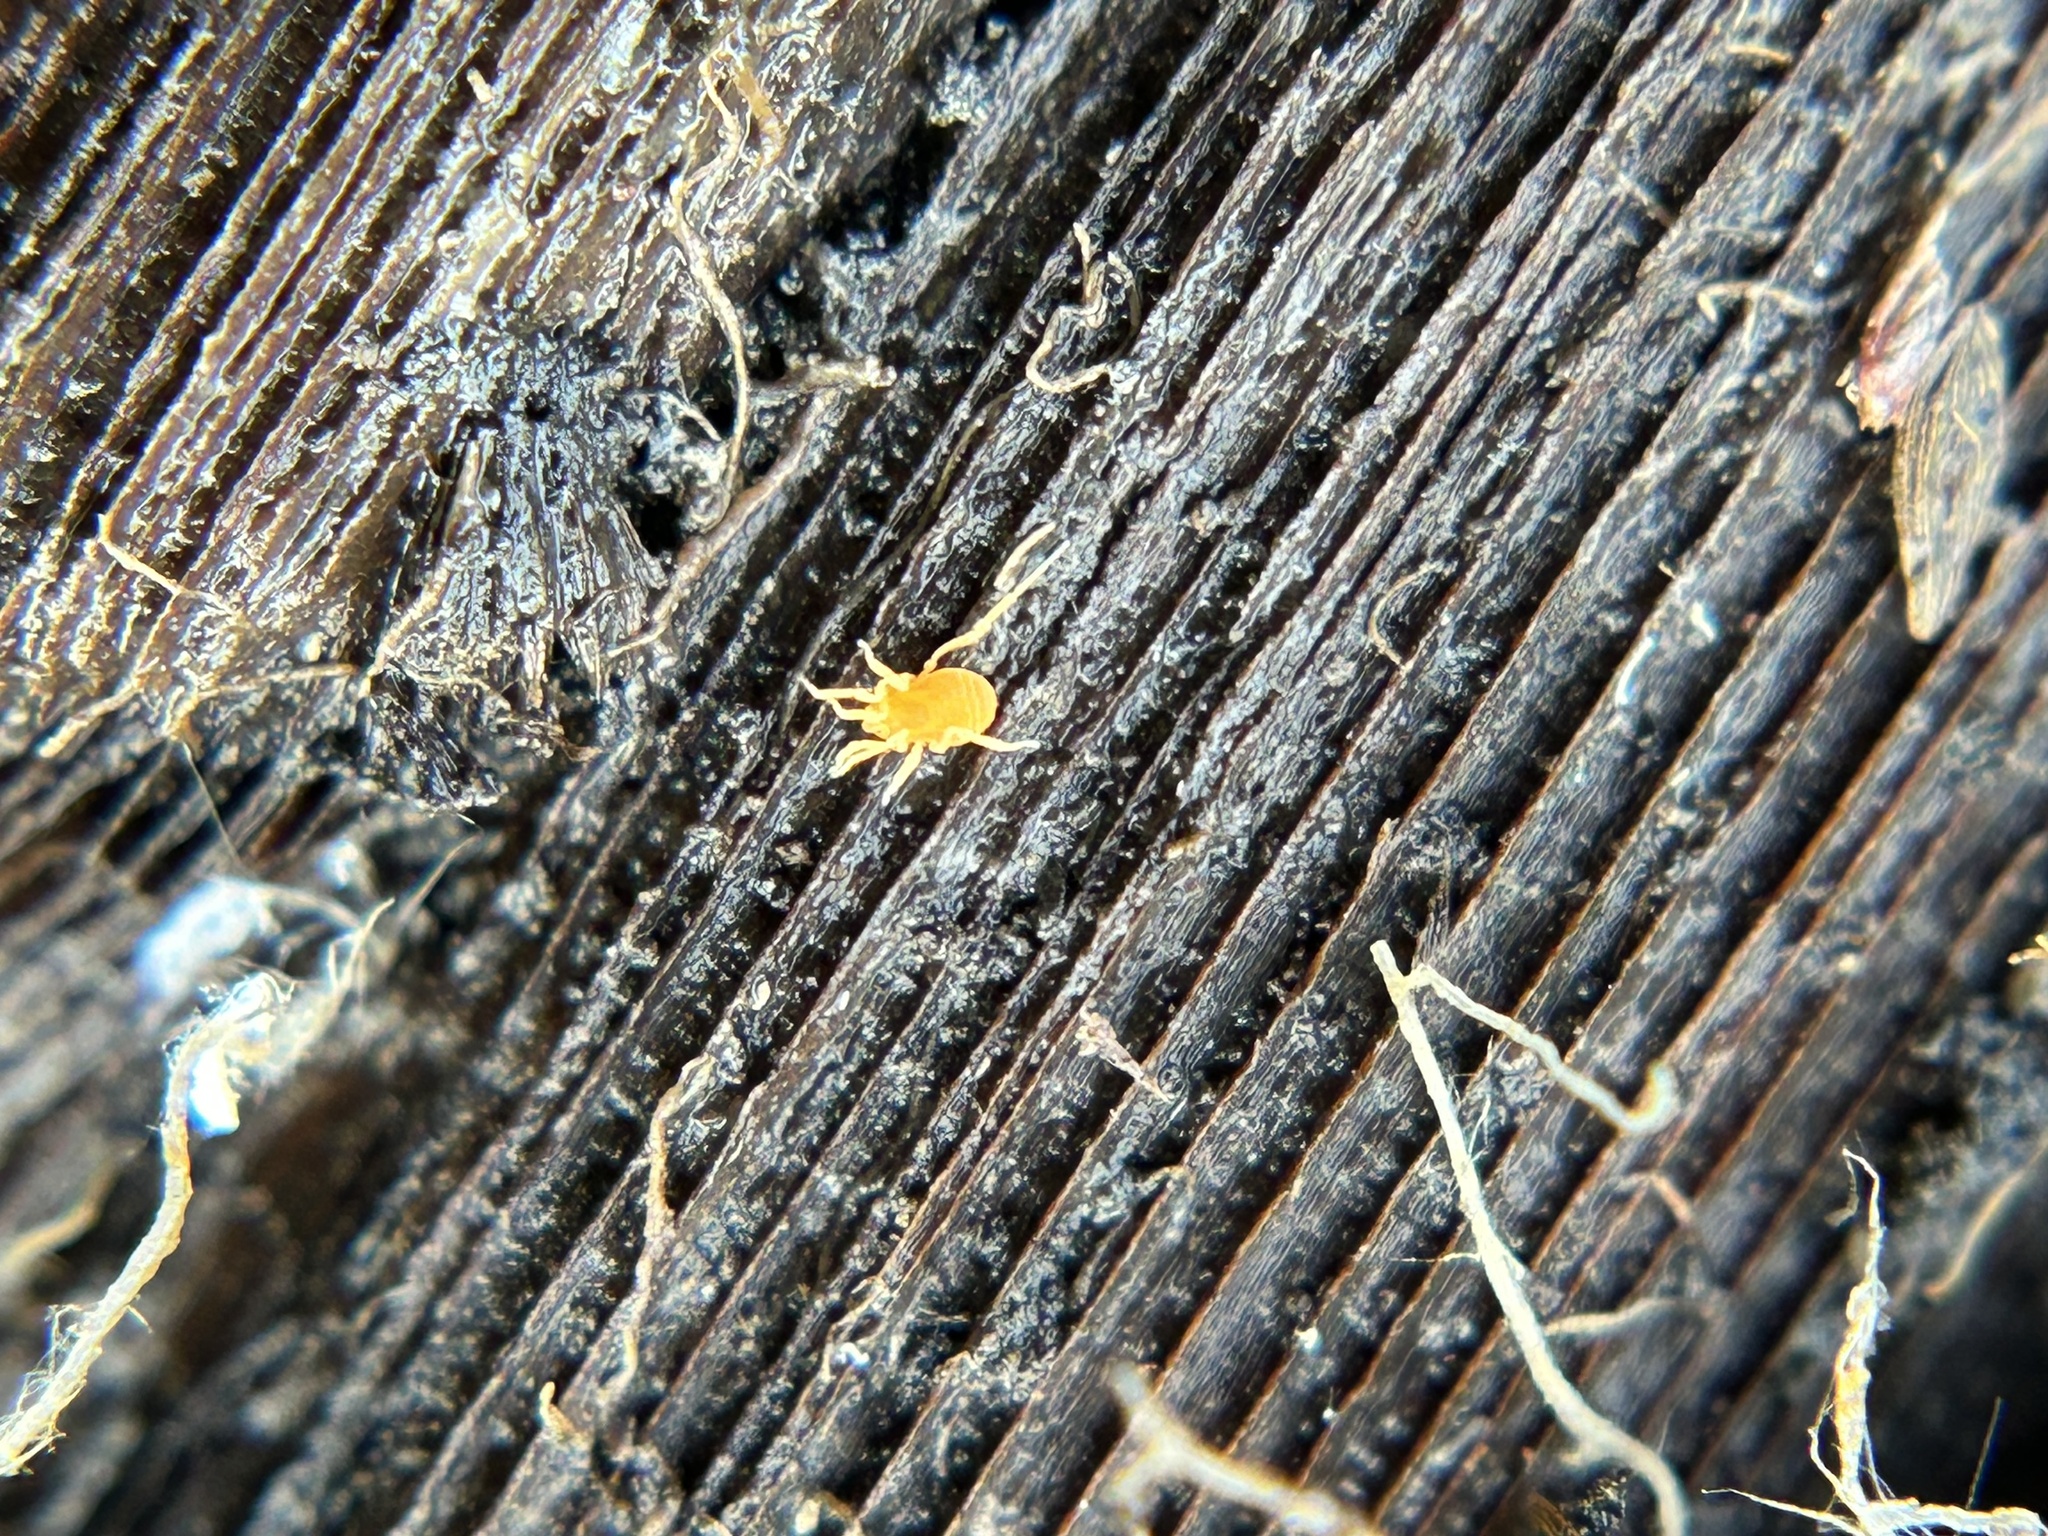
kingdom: Animalia
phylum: Arthropoda
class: Arachnida
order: Opiliones
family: Phalangodidae
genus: Calicina
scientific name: Calicina morroensis
